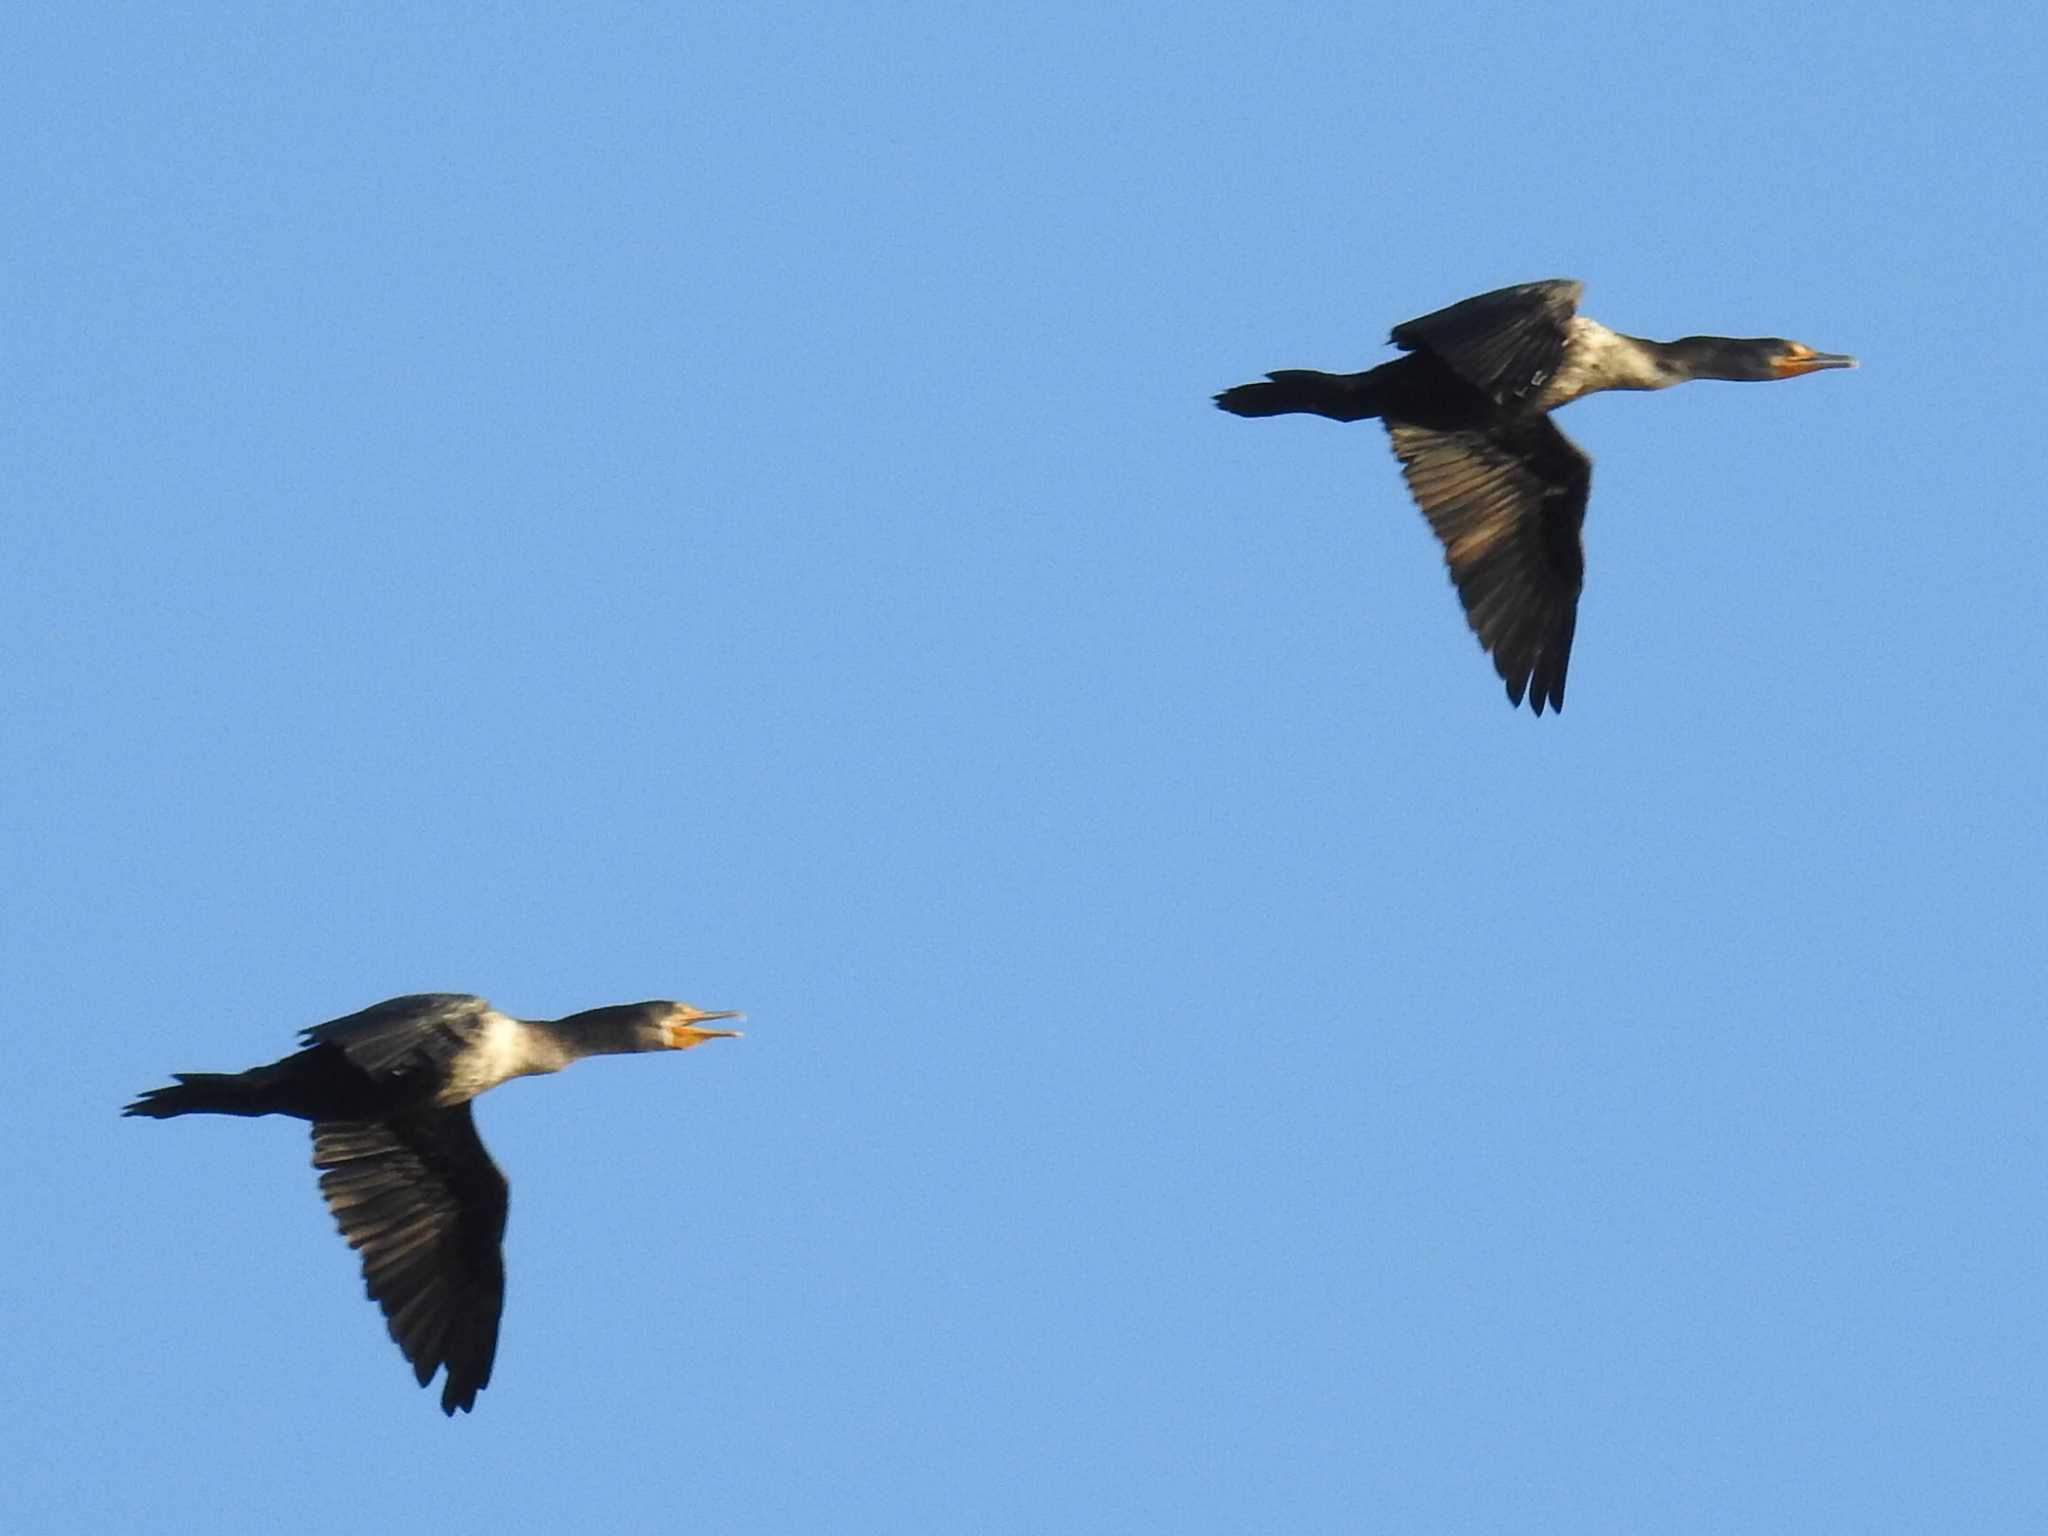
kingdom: Animalia
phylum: Chordata
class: Aves
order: Suliformes
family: Phalacrocoracidae
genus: Phalacrocorax
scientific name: Phalacrocorax auritus
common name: Double-crested cormorant
